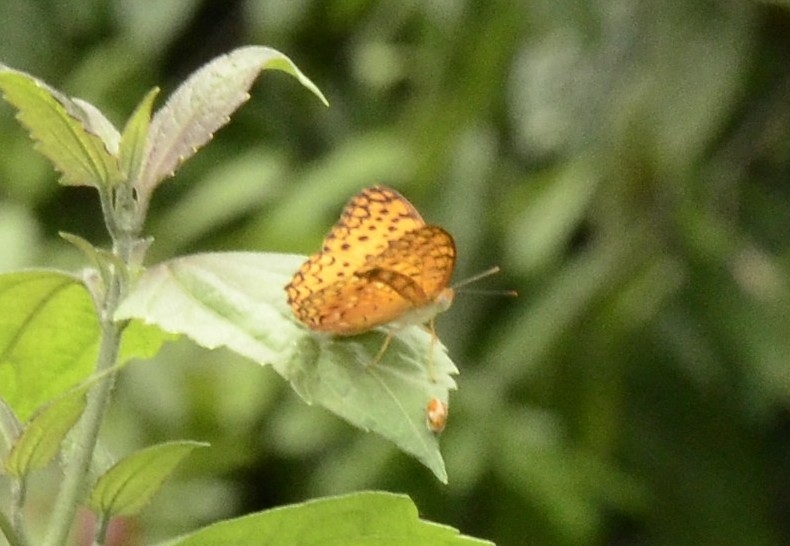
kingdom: Animalia
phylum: Arthropoda
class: Insecta
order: Lepidoptera
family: Nymphalidae
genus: Phalanta
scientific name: Phalanta phalantha
